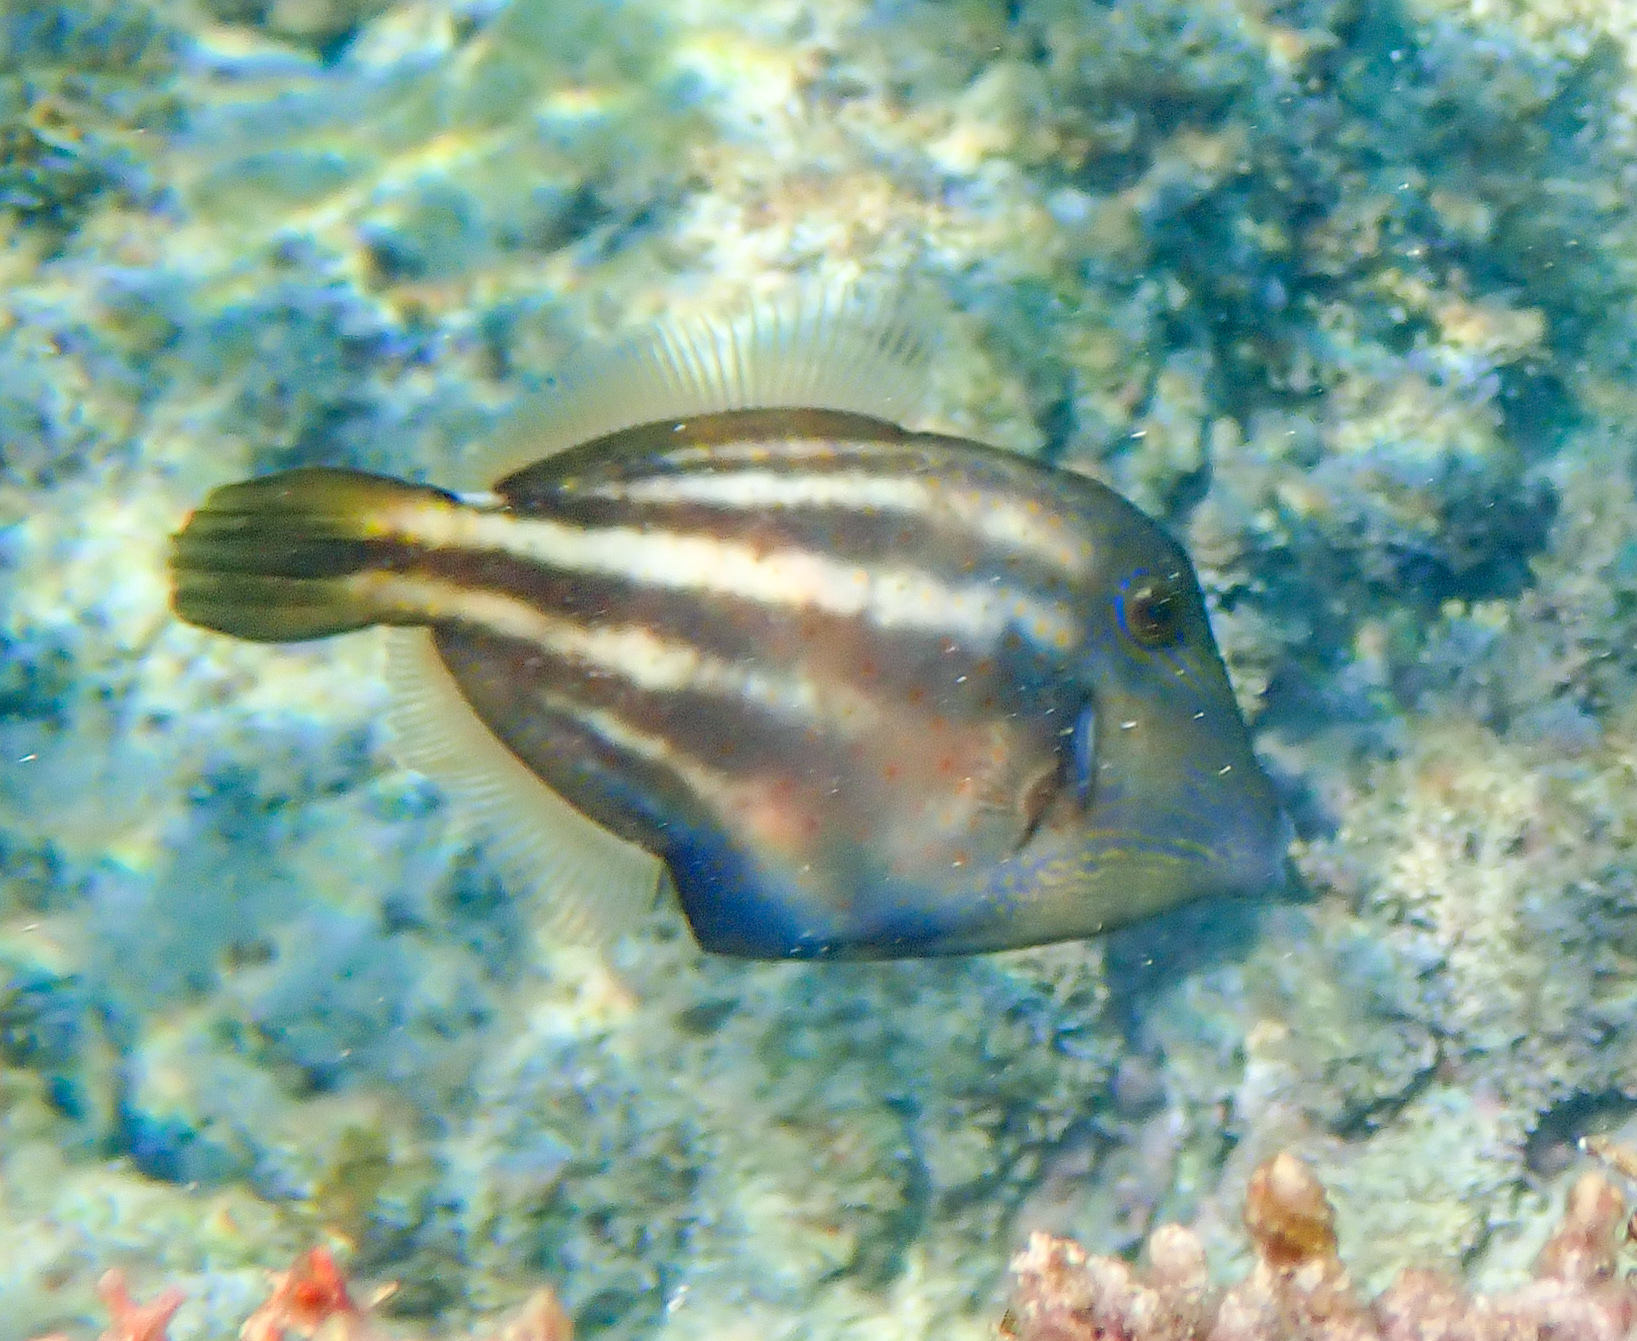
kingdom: Animalia
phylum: Chordata
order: Tetraodontiformes
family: Monacanthidae
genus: Cantherhines
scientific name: Cantherhines pullus
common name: Orangespotted filefish
